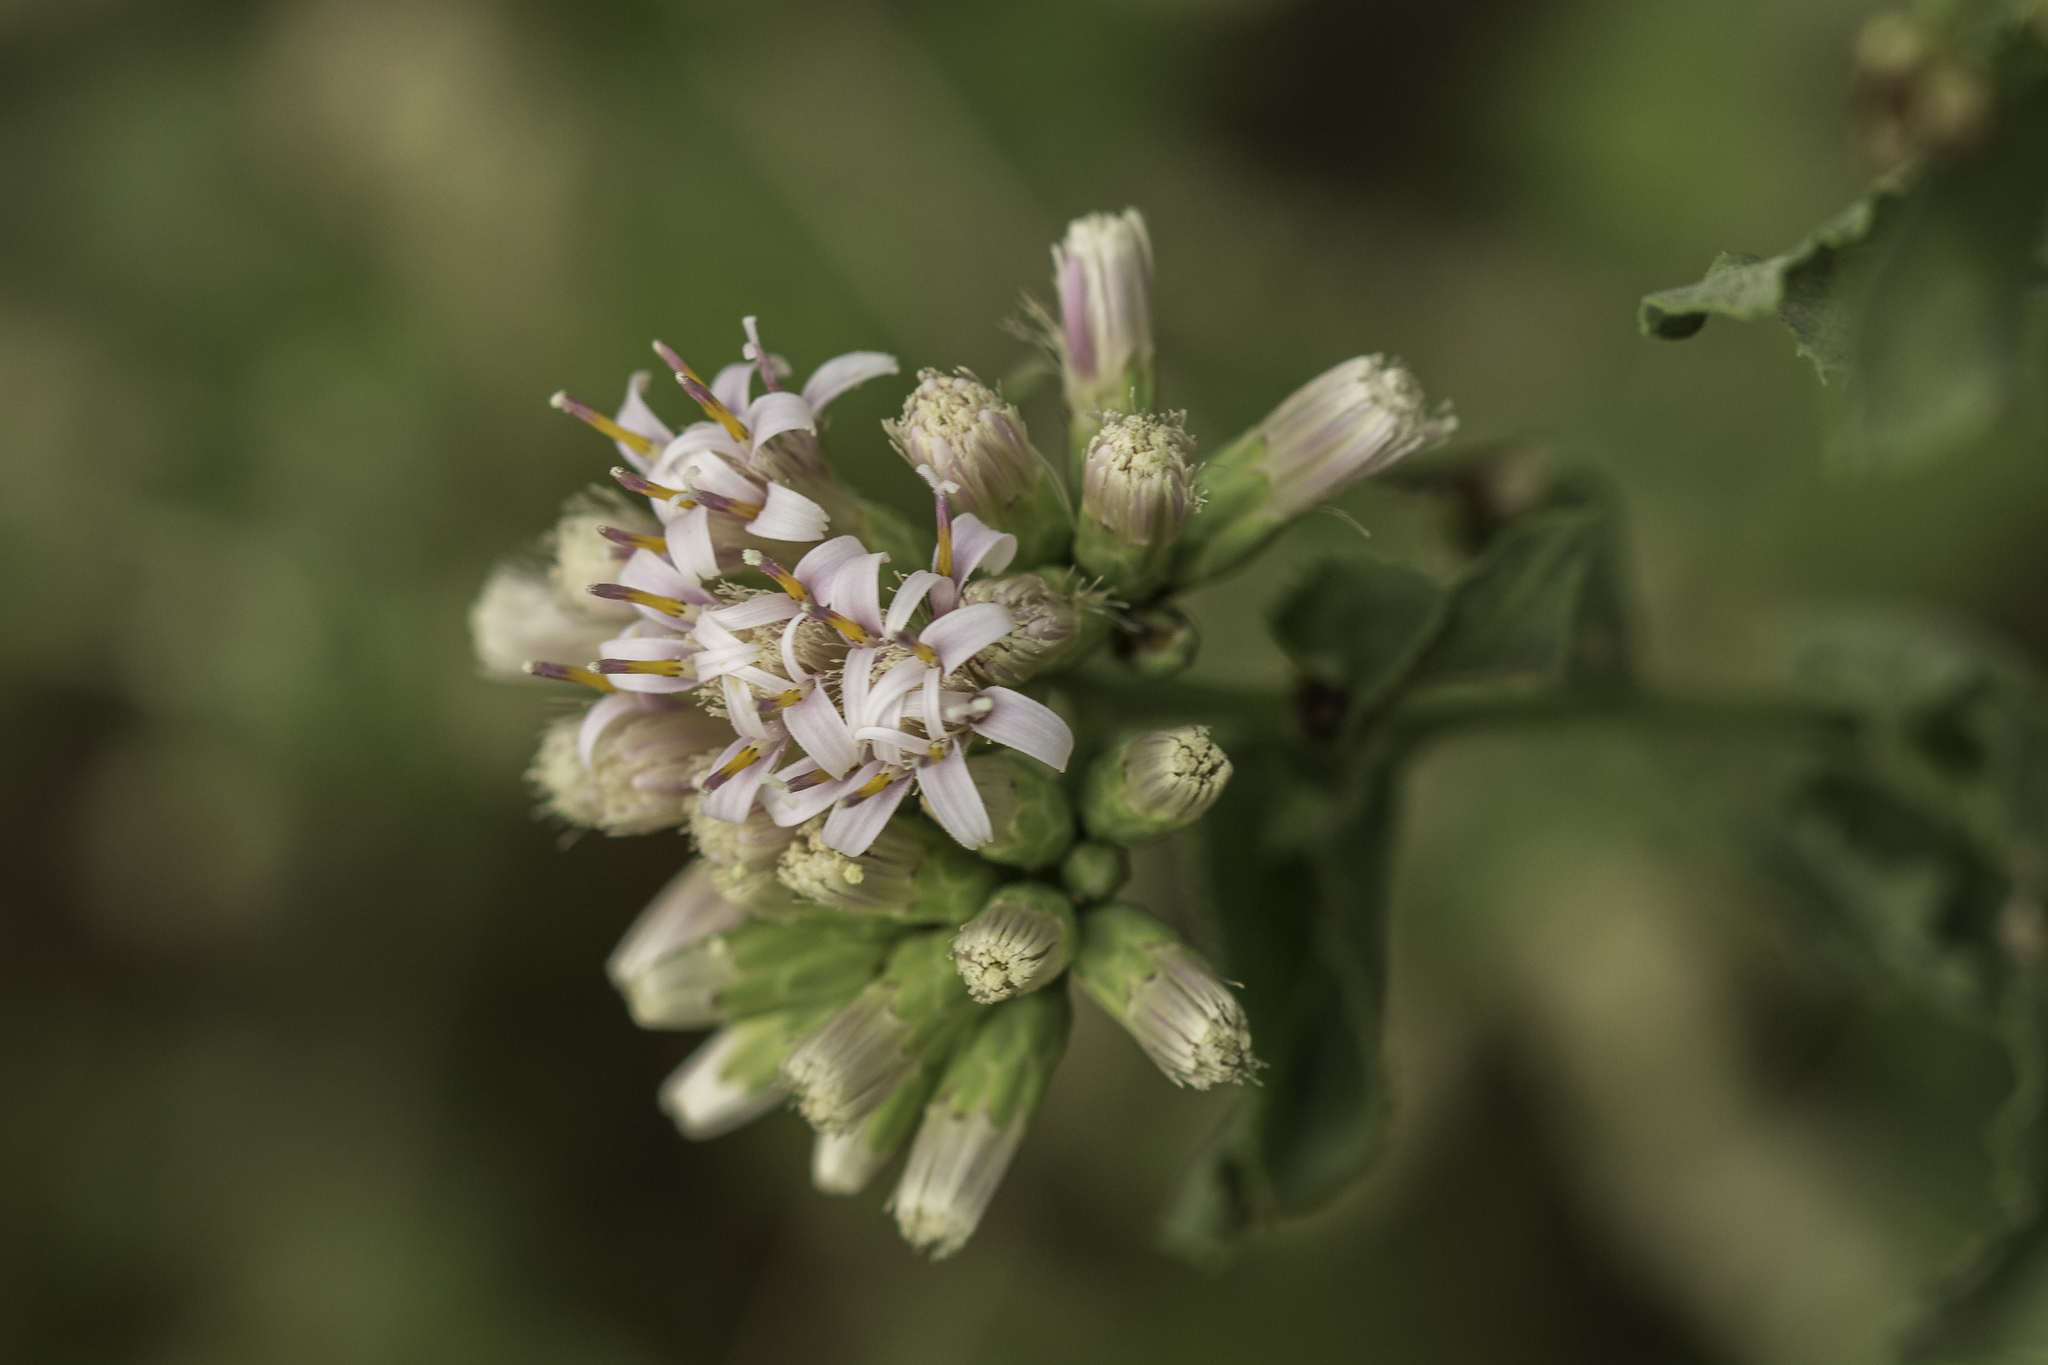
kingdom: Plantae
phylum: Tracheophyta
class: Magnoliopsida
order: Asterales
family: Asteraceae
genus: Acourtia
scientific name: Acourtia wrightii
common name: Brownfoot
